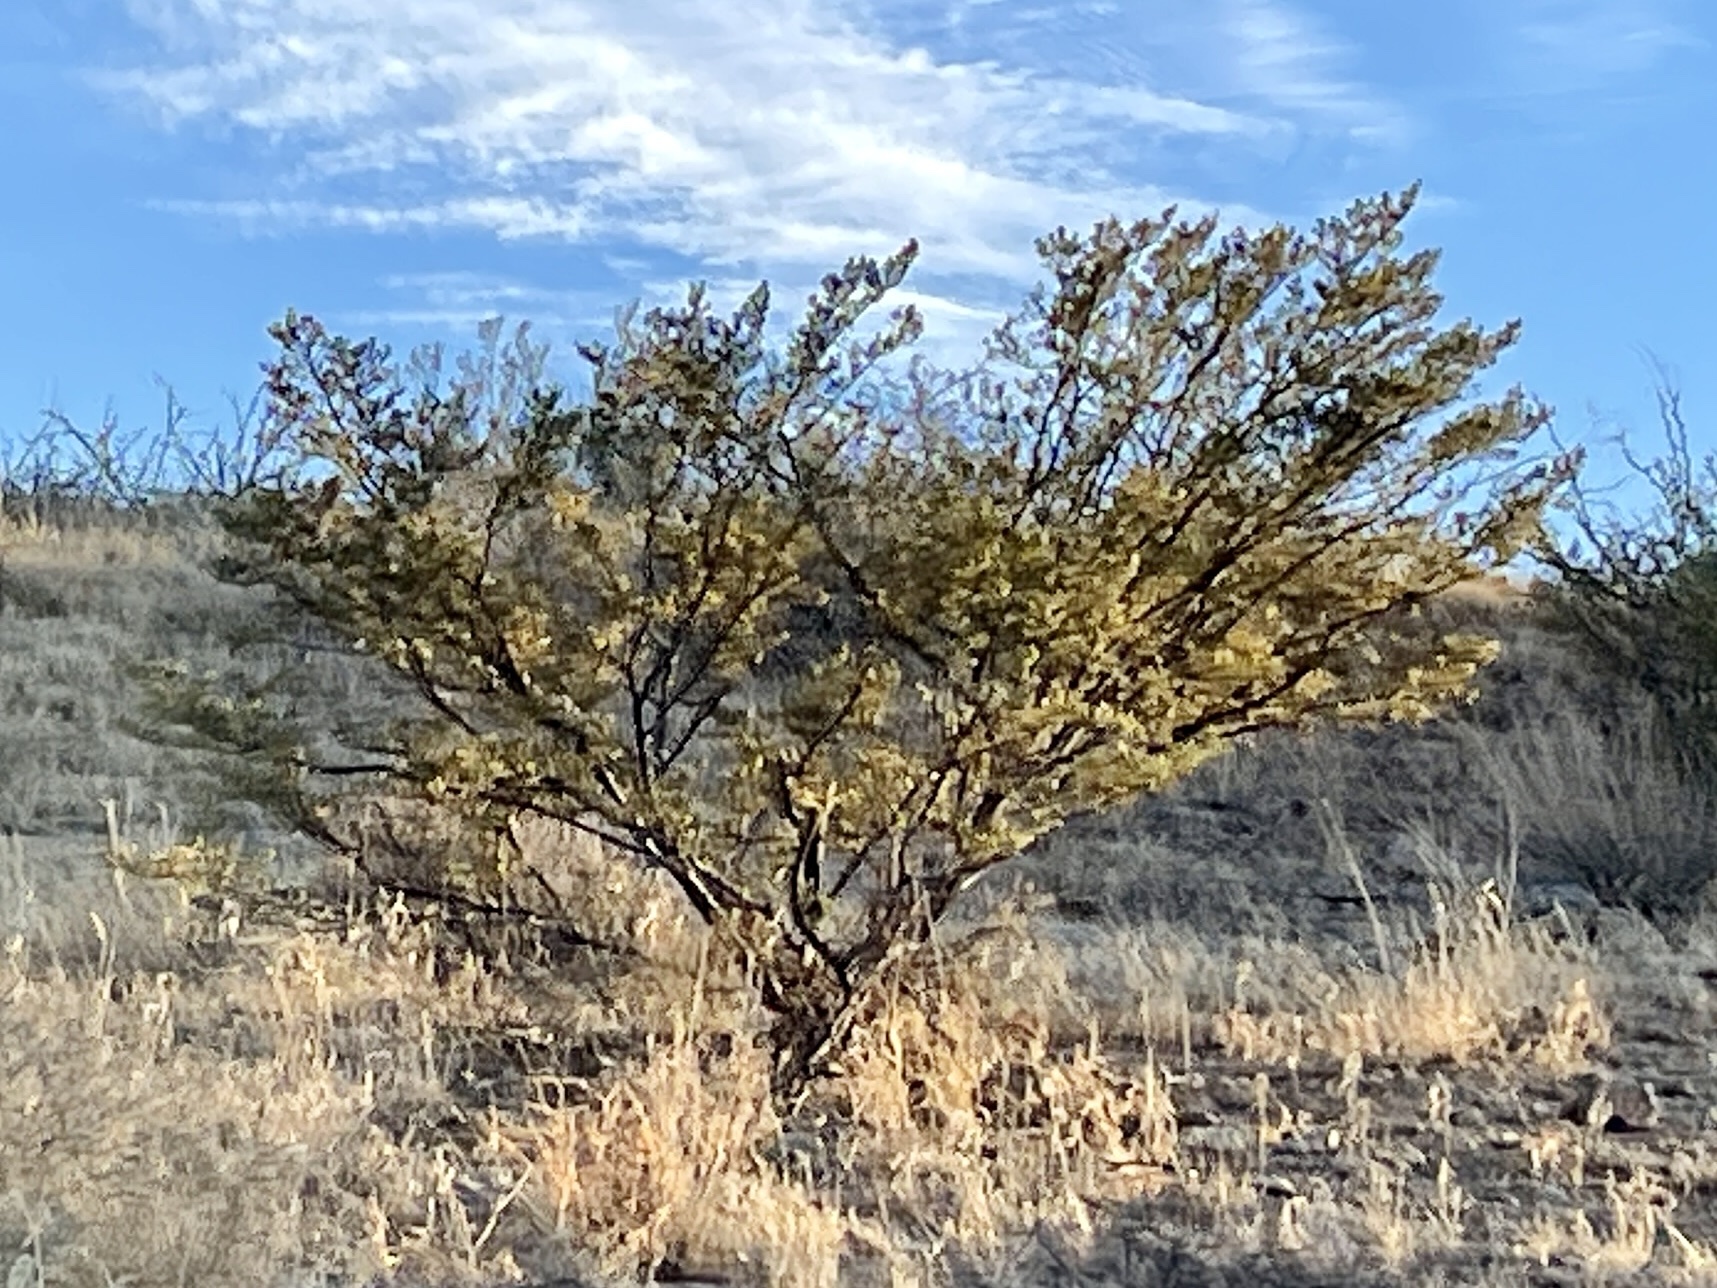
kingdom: Plantae
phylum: Tracheophyta
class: Magnoliopsida
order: Zygophyllales
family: Zygophyllaceae
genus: Larrea
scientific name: Larrea tridentata
